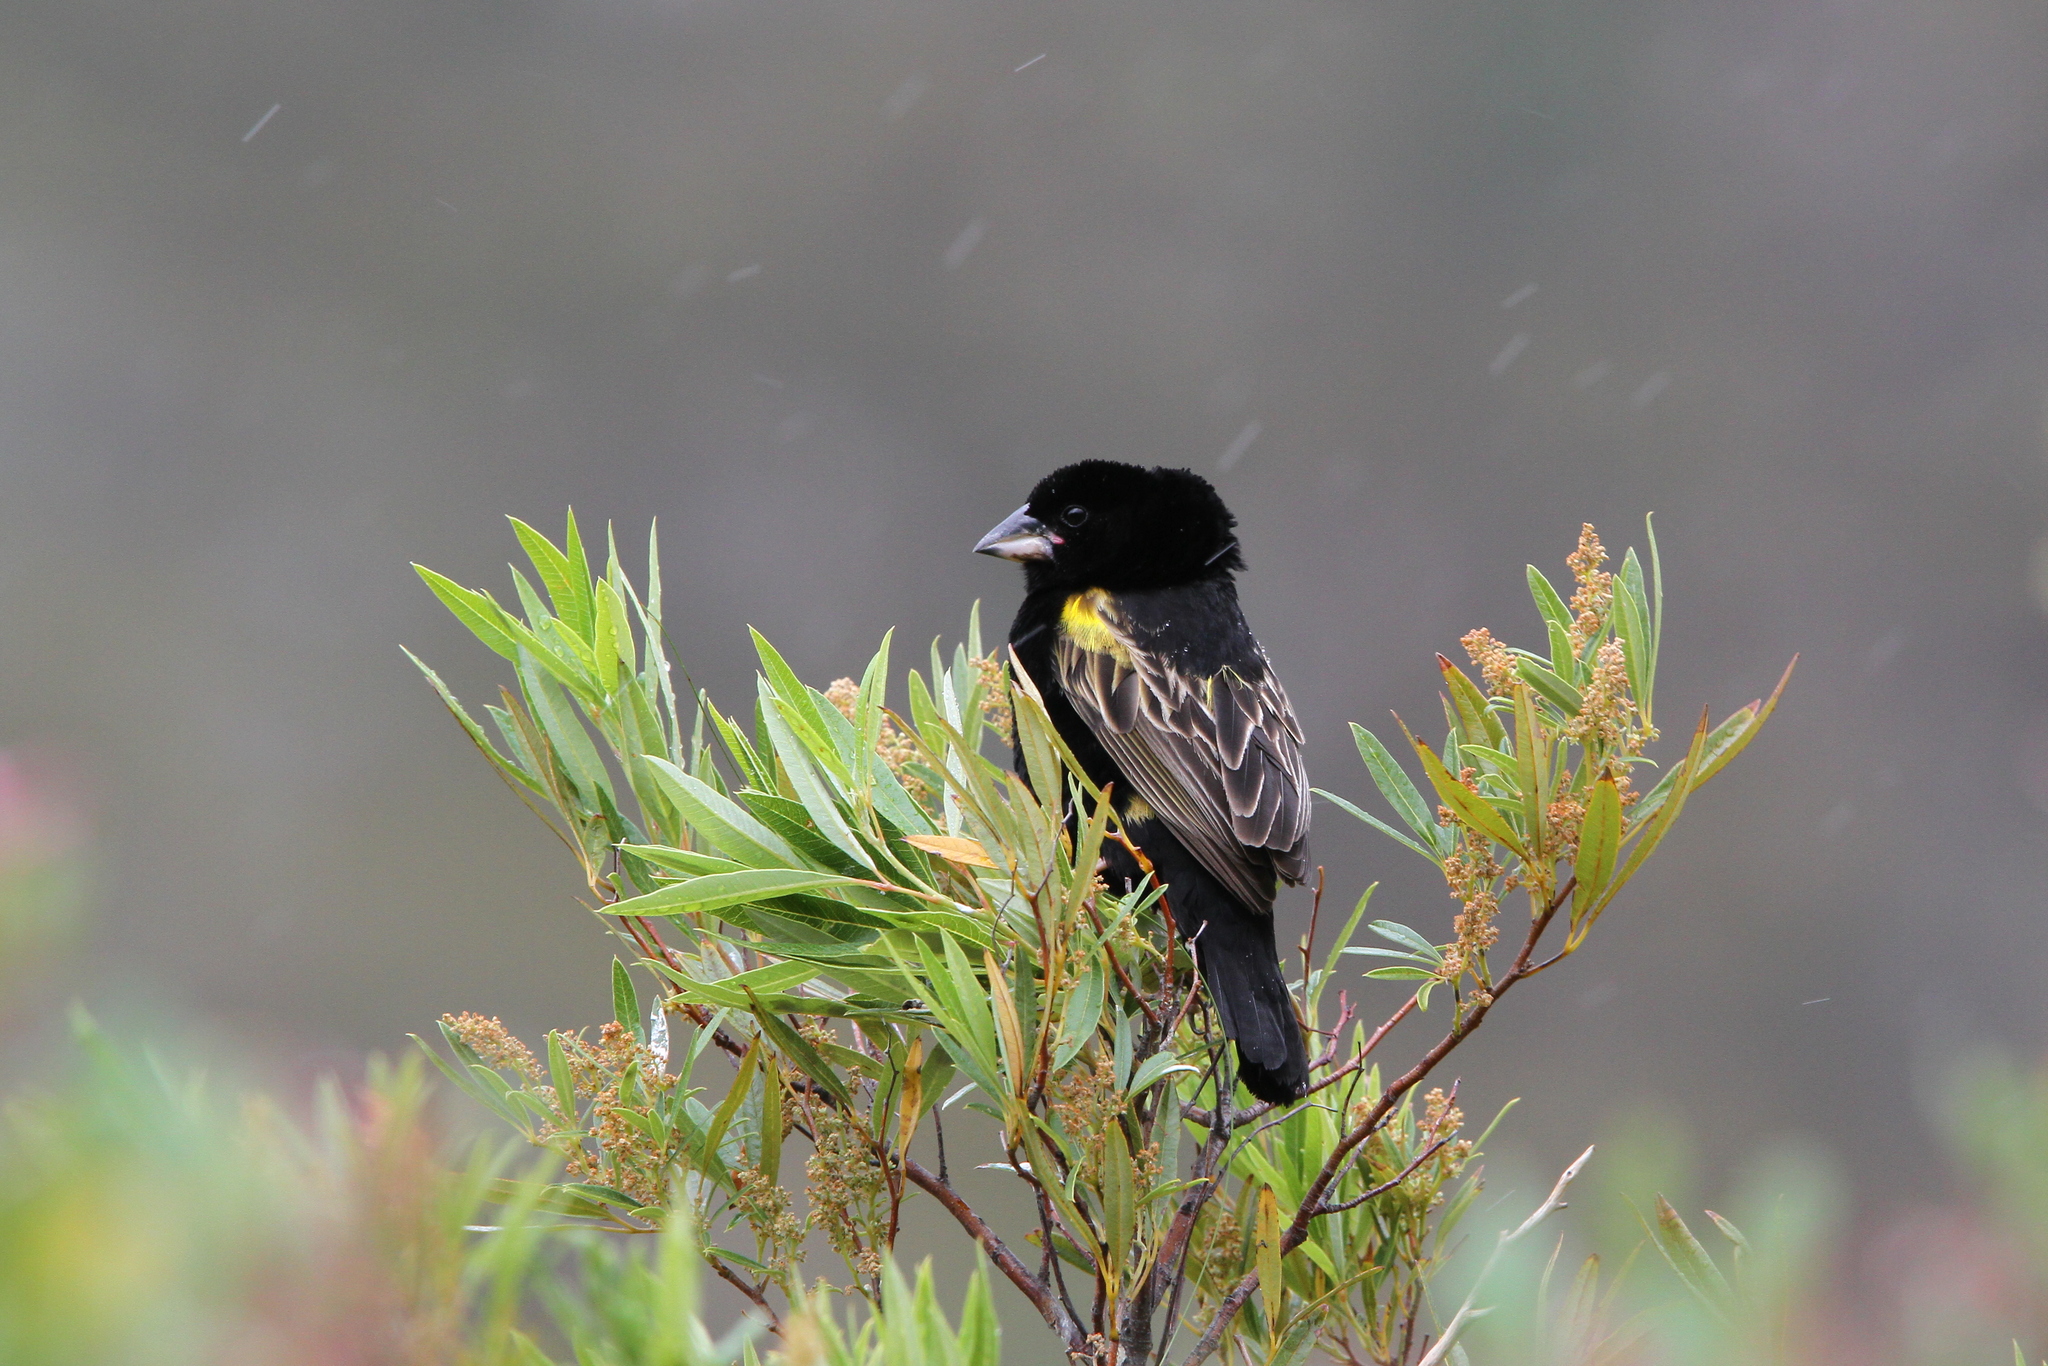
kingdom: Animalia
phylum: Chordata
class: Aves
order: Passeriformes
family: Ploceidae
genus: Euplectes
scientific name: Euplectes capensis
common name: Yellow bishop
